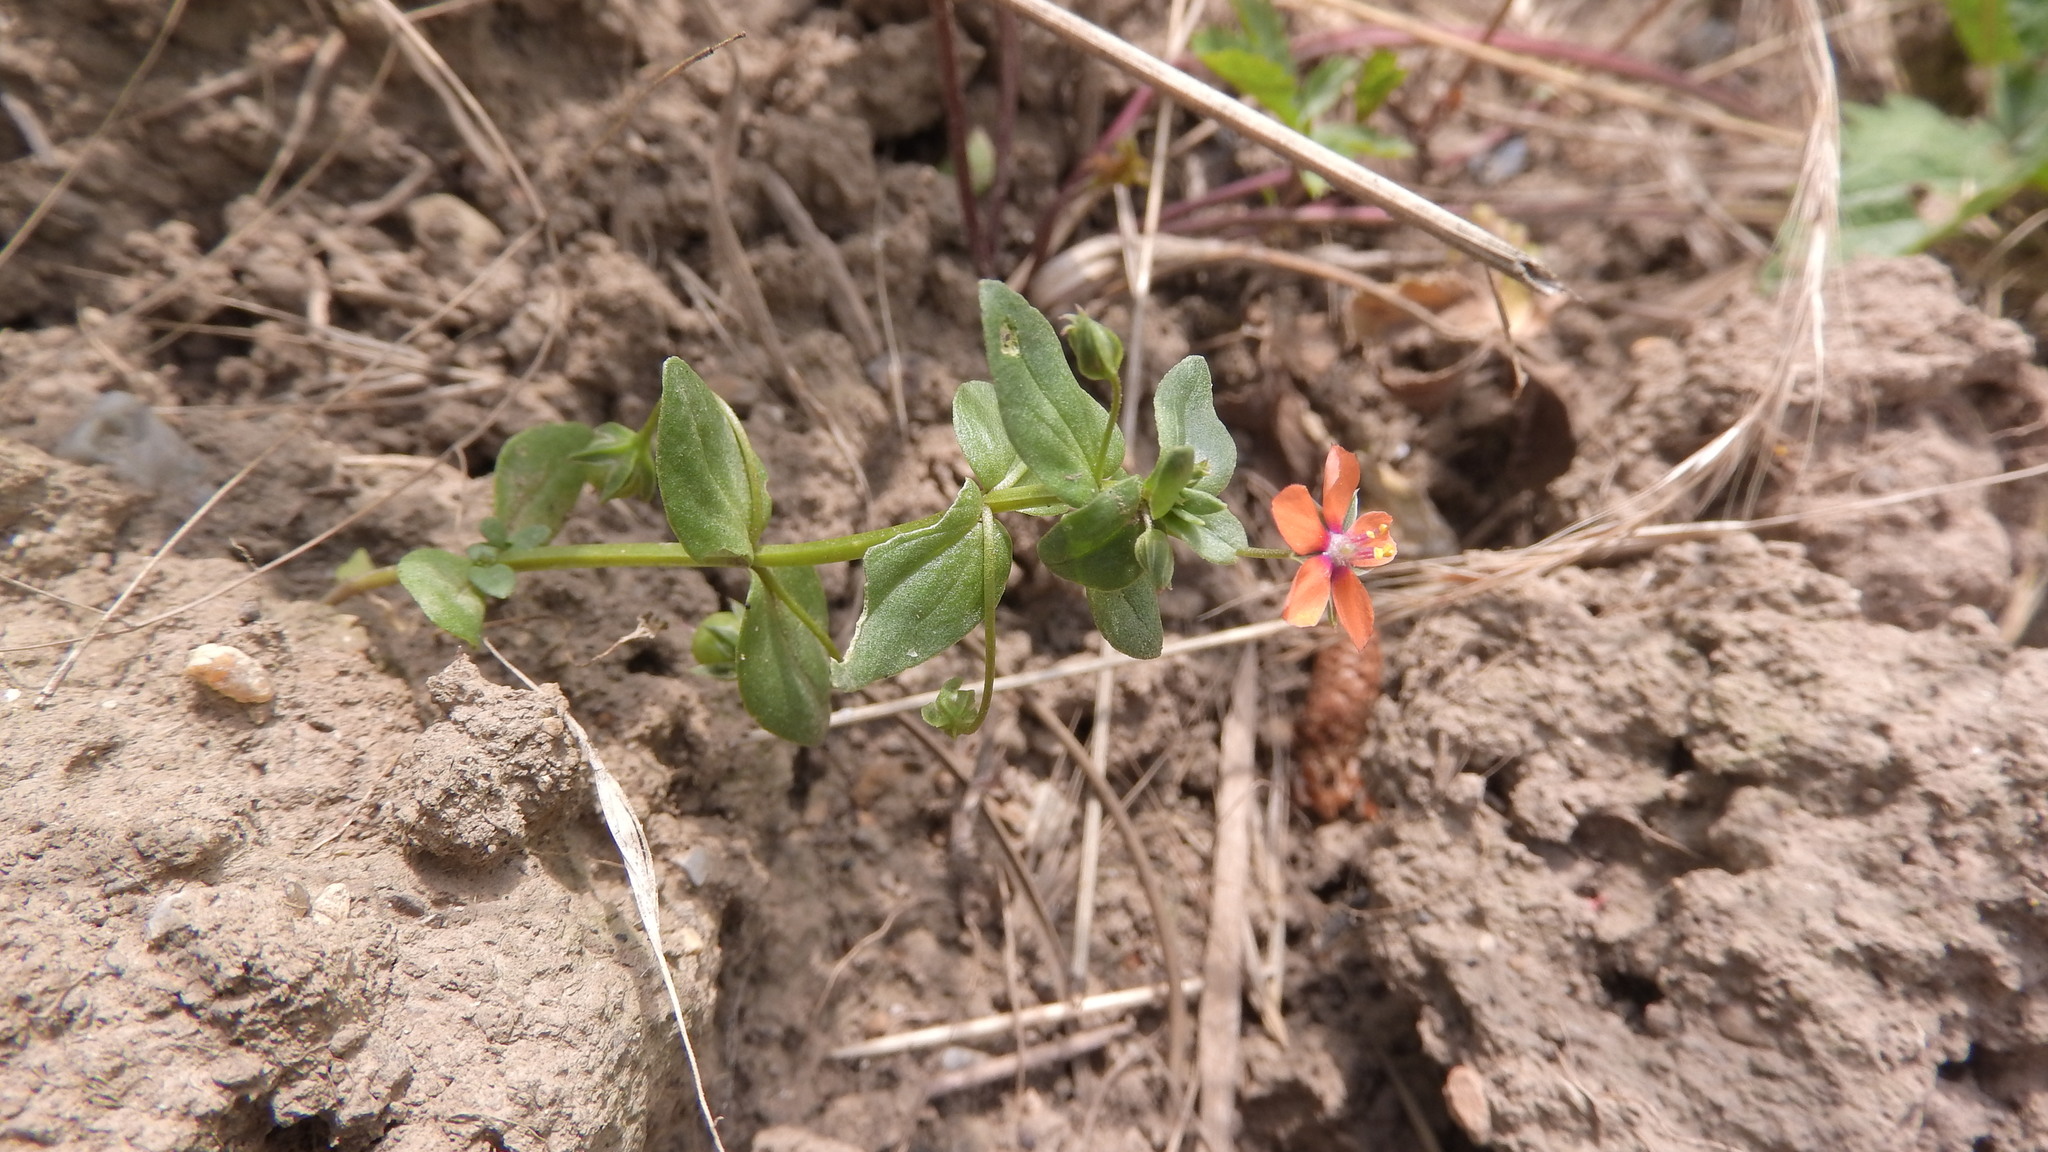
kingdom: Plantae
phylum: Tracheophyta
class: Magnoliopsida
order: Ericales
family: Primulaceae
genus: Lysimachia
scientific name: Lysimachia arvensis
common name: Scarlet pimpernel
